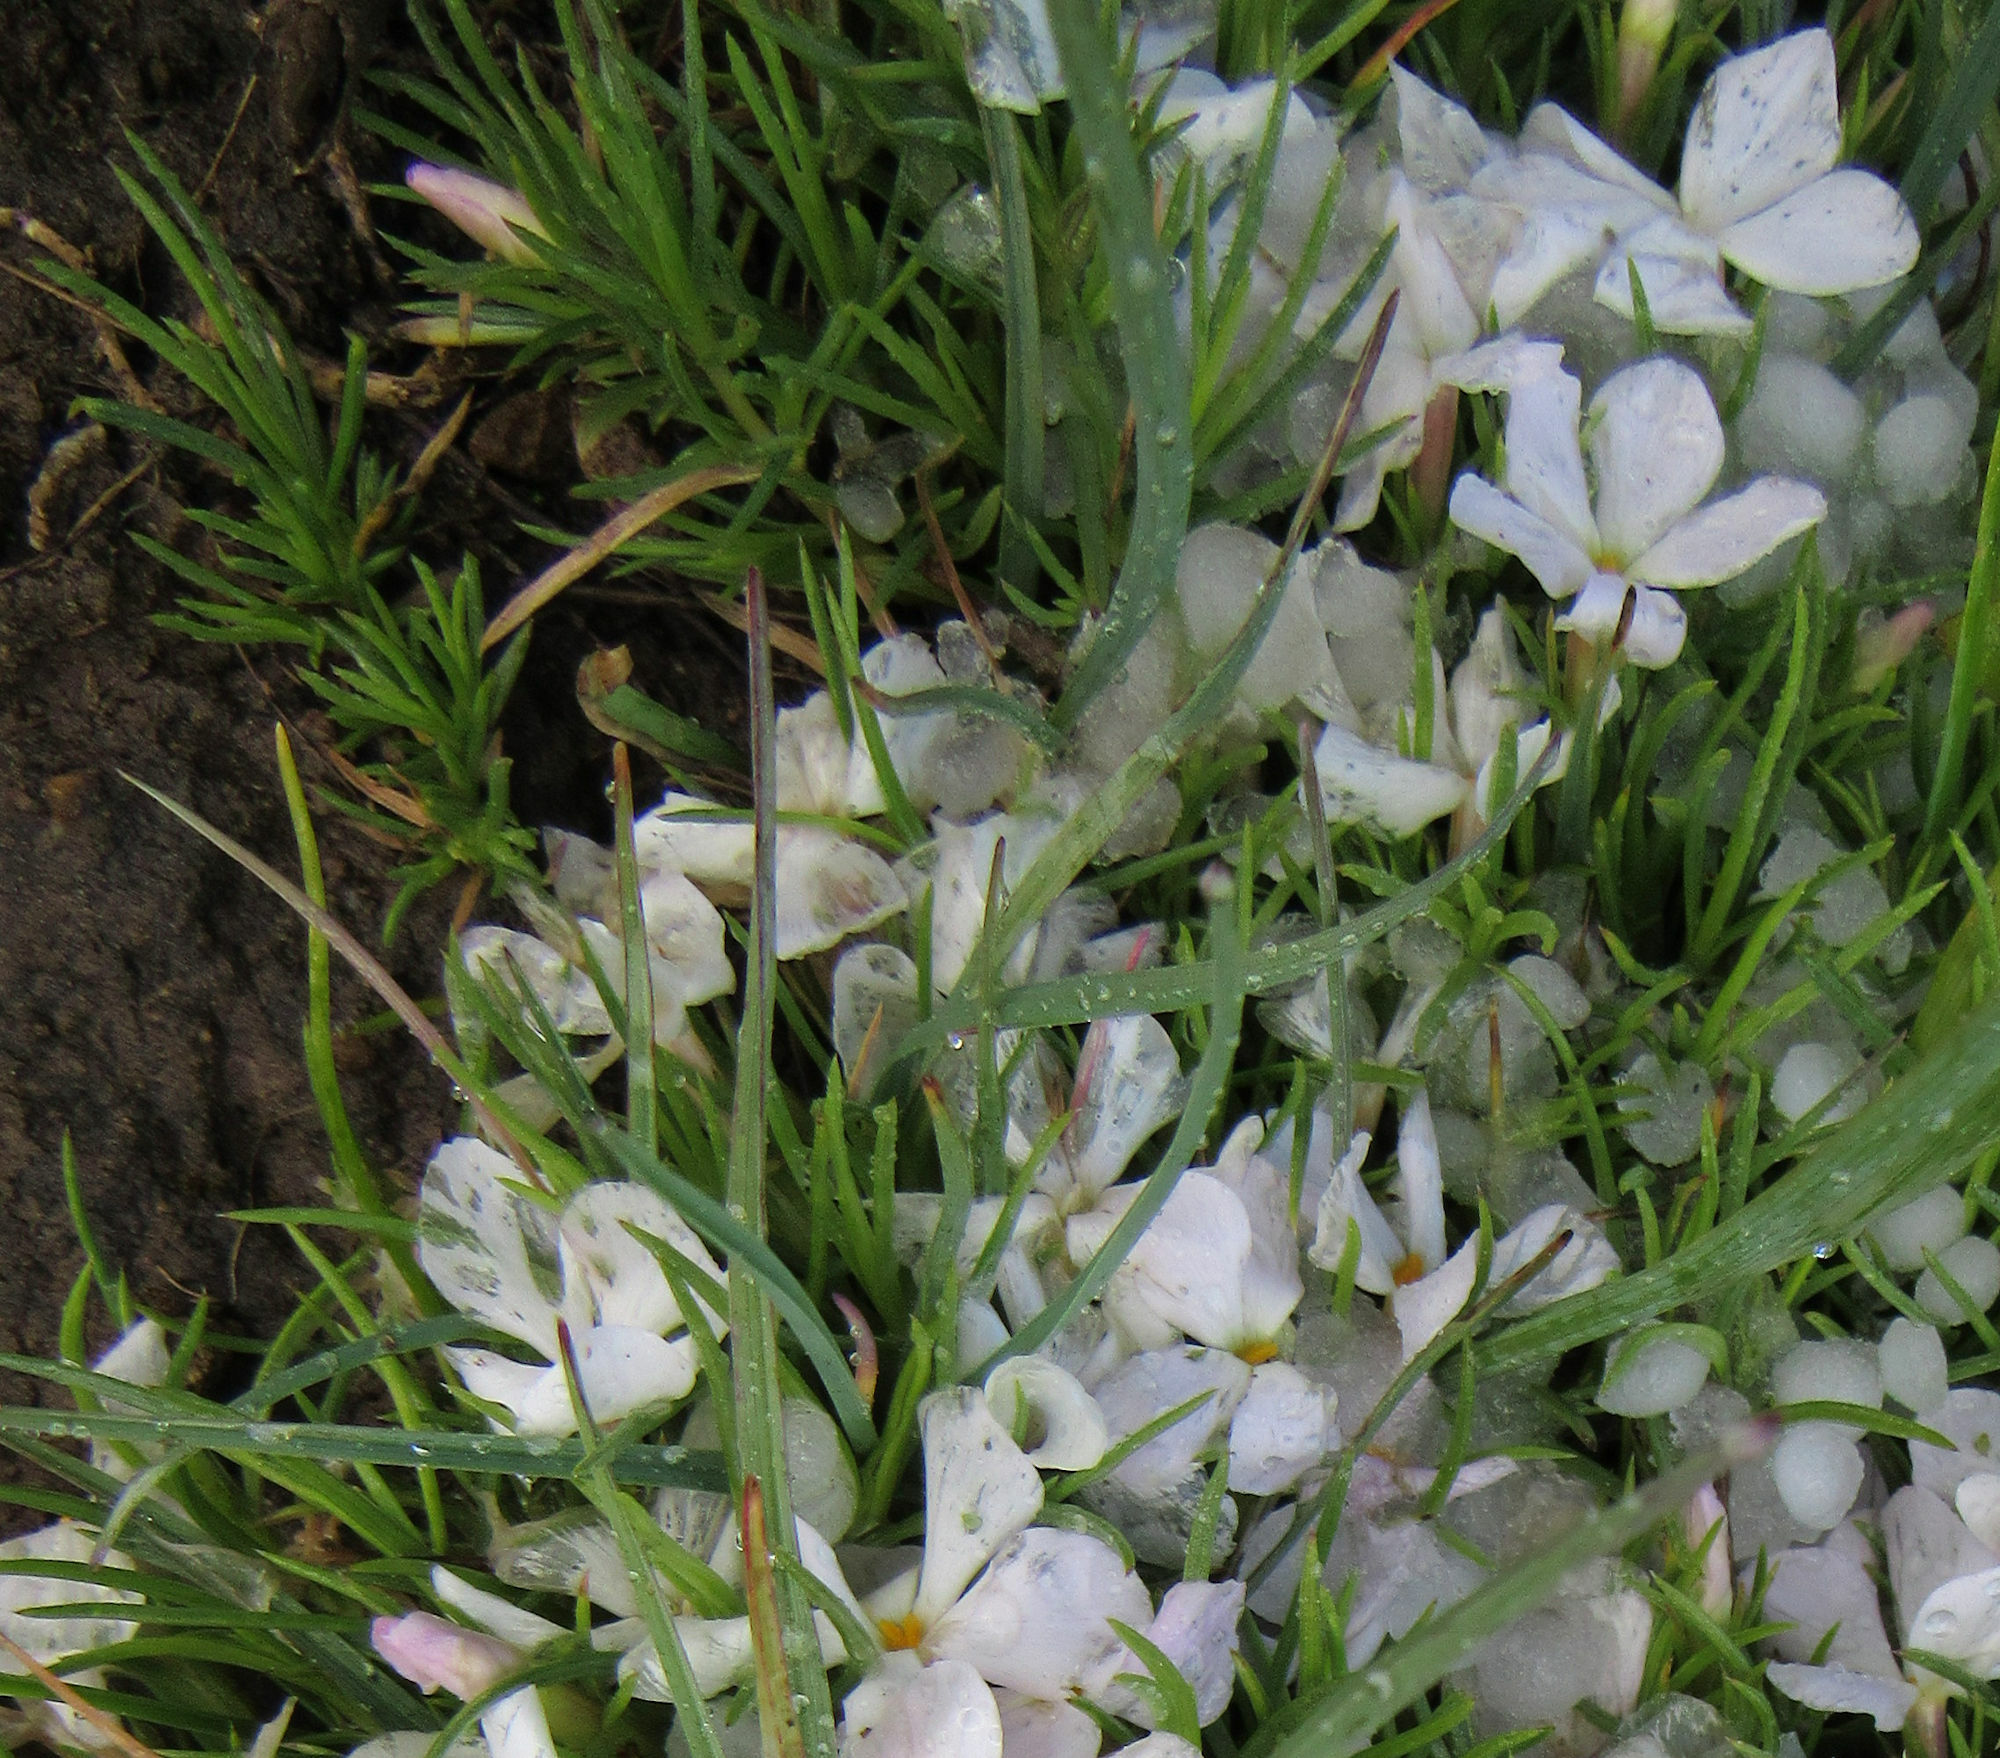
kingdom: Plantae
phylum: Tracheophyta
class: Magnoliopsida
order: Ericales
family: Polemoniaceae
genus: Phlox
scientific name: Phlox multiflora
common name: Rocky mountain phlox
